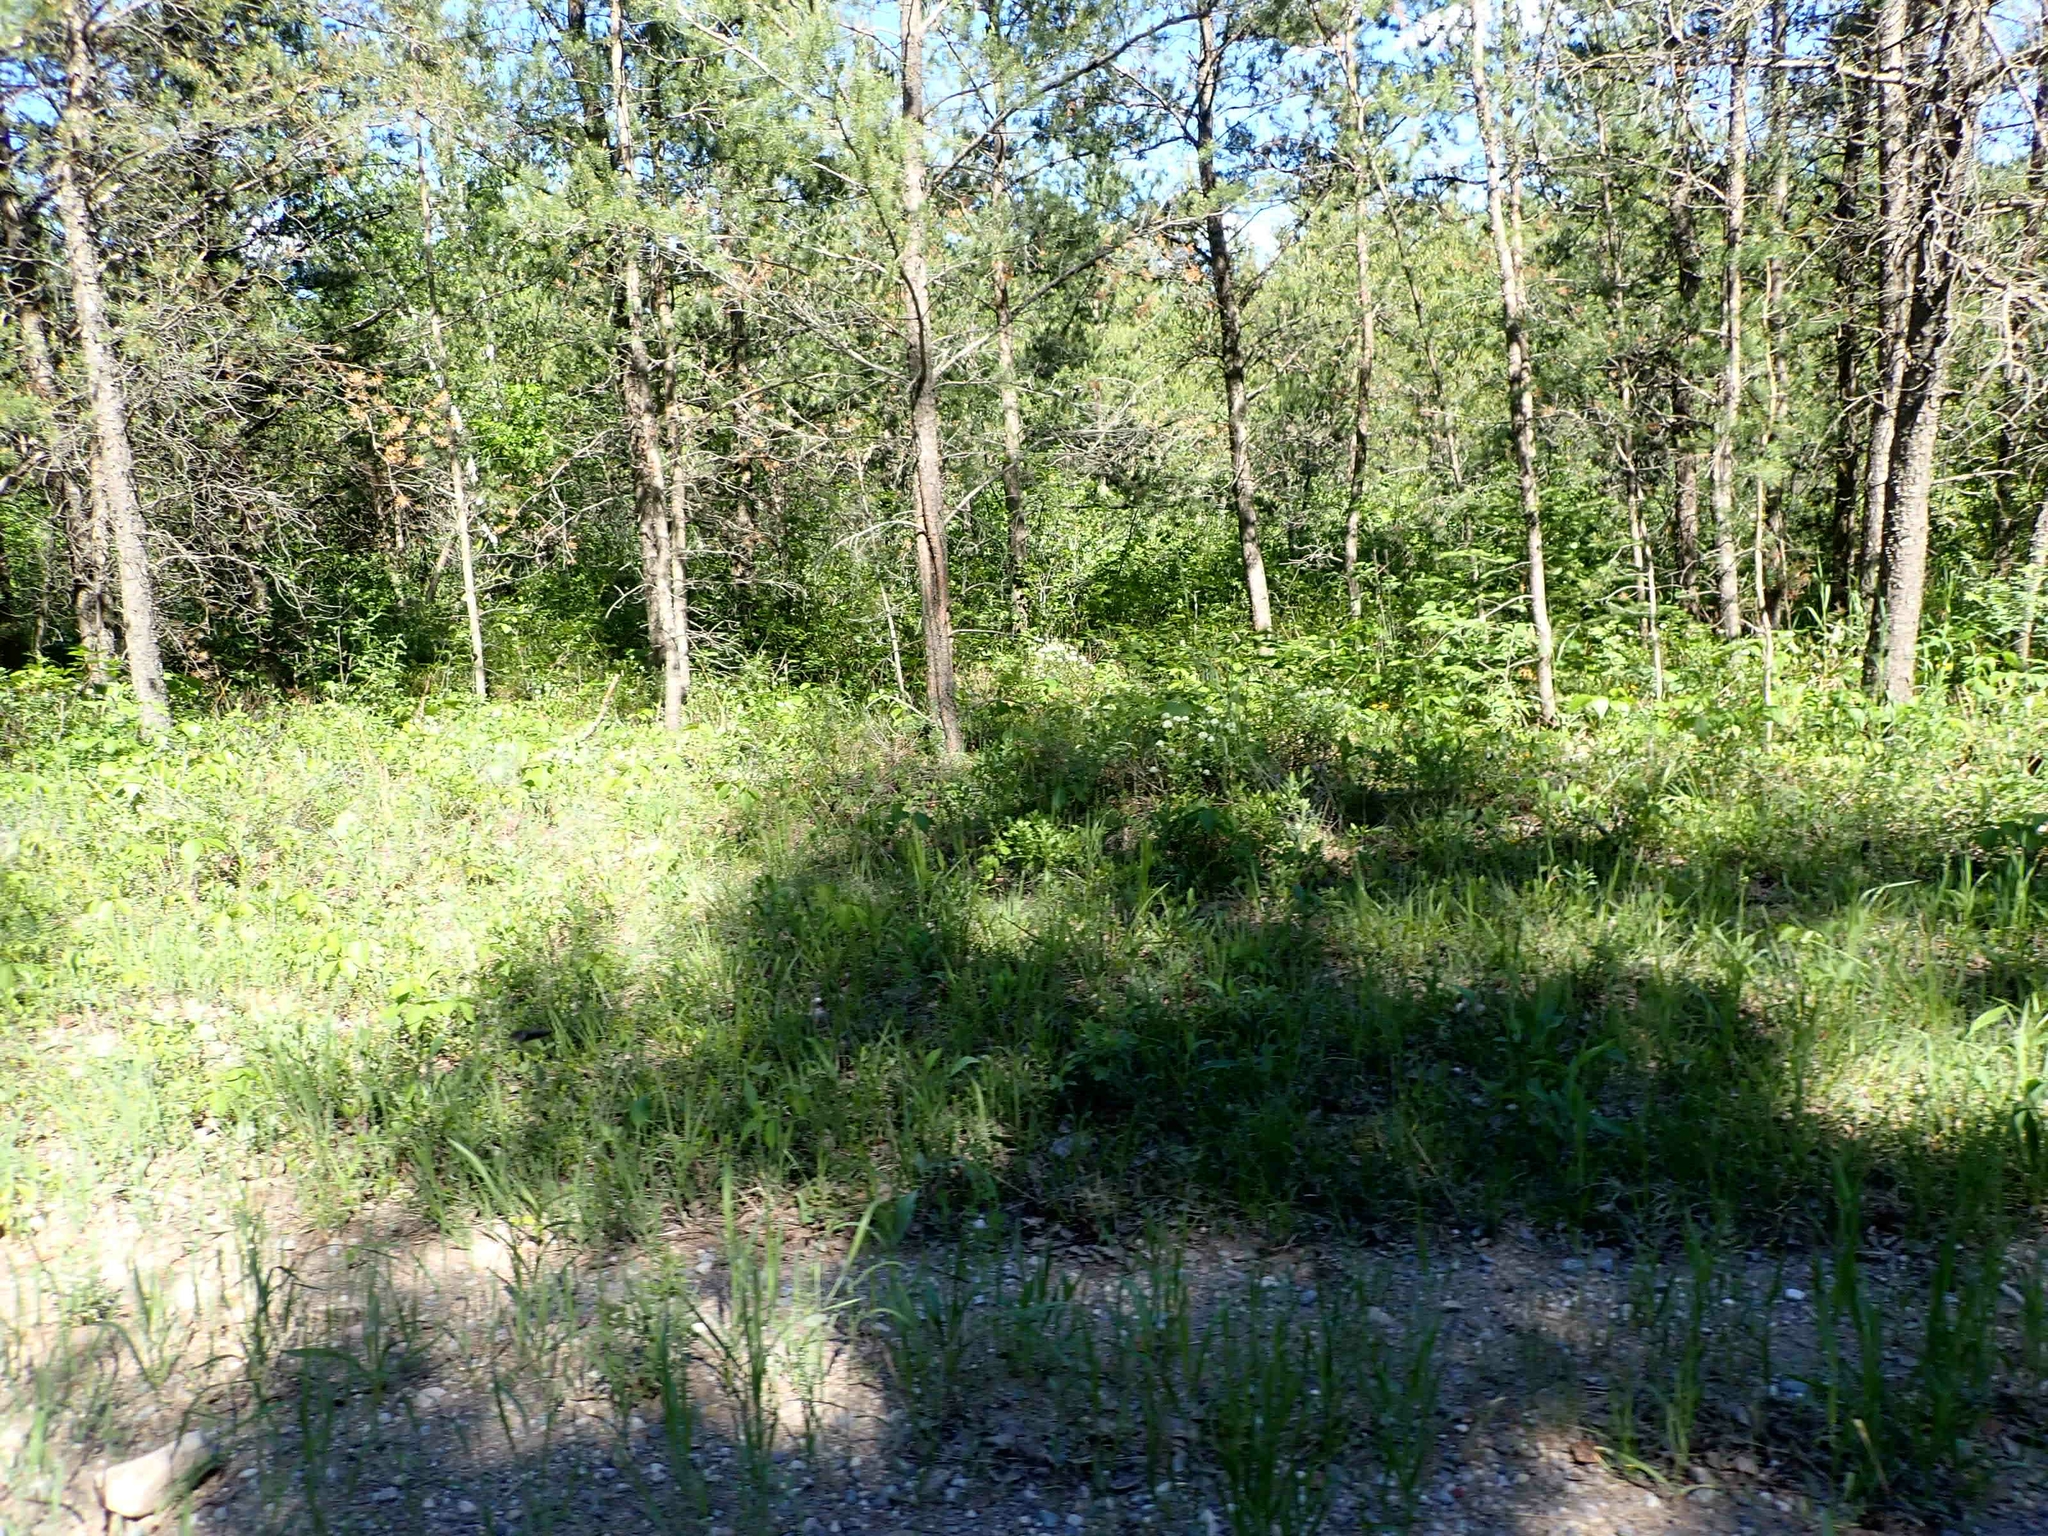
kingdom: Plantae
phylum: Tracheophyta
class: Magnoliopsida
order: Rosales
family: Rhamnaceae
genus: Ceanothus
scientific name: Ceanothus herbaceus
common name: Inland ceanothus
